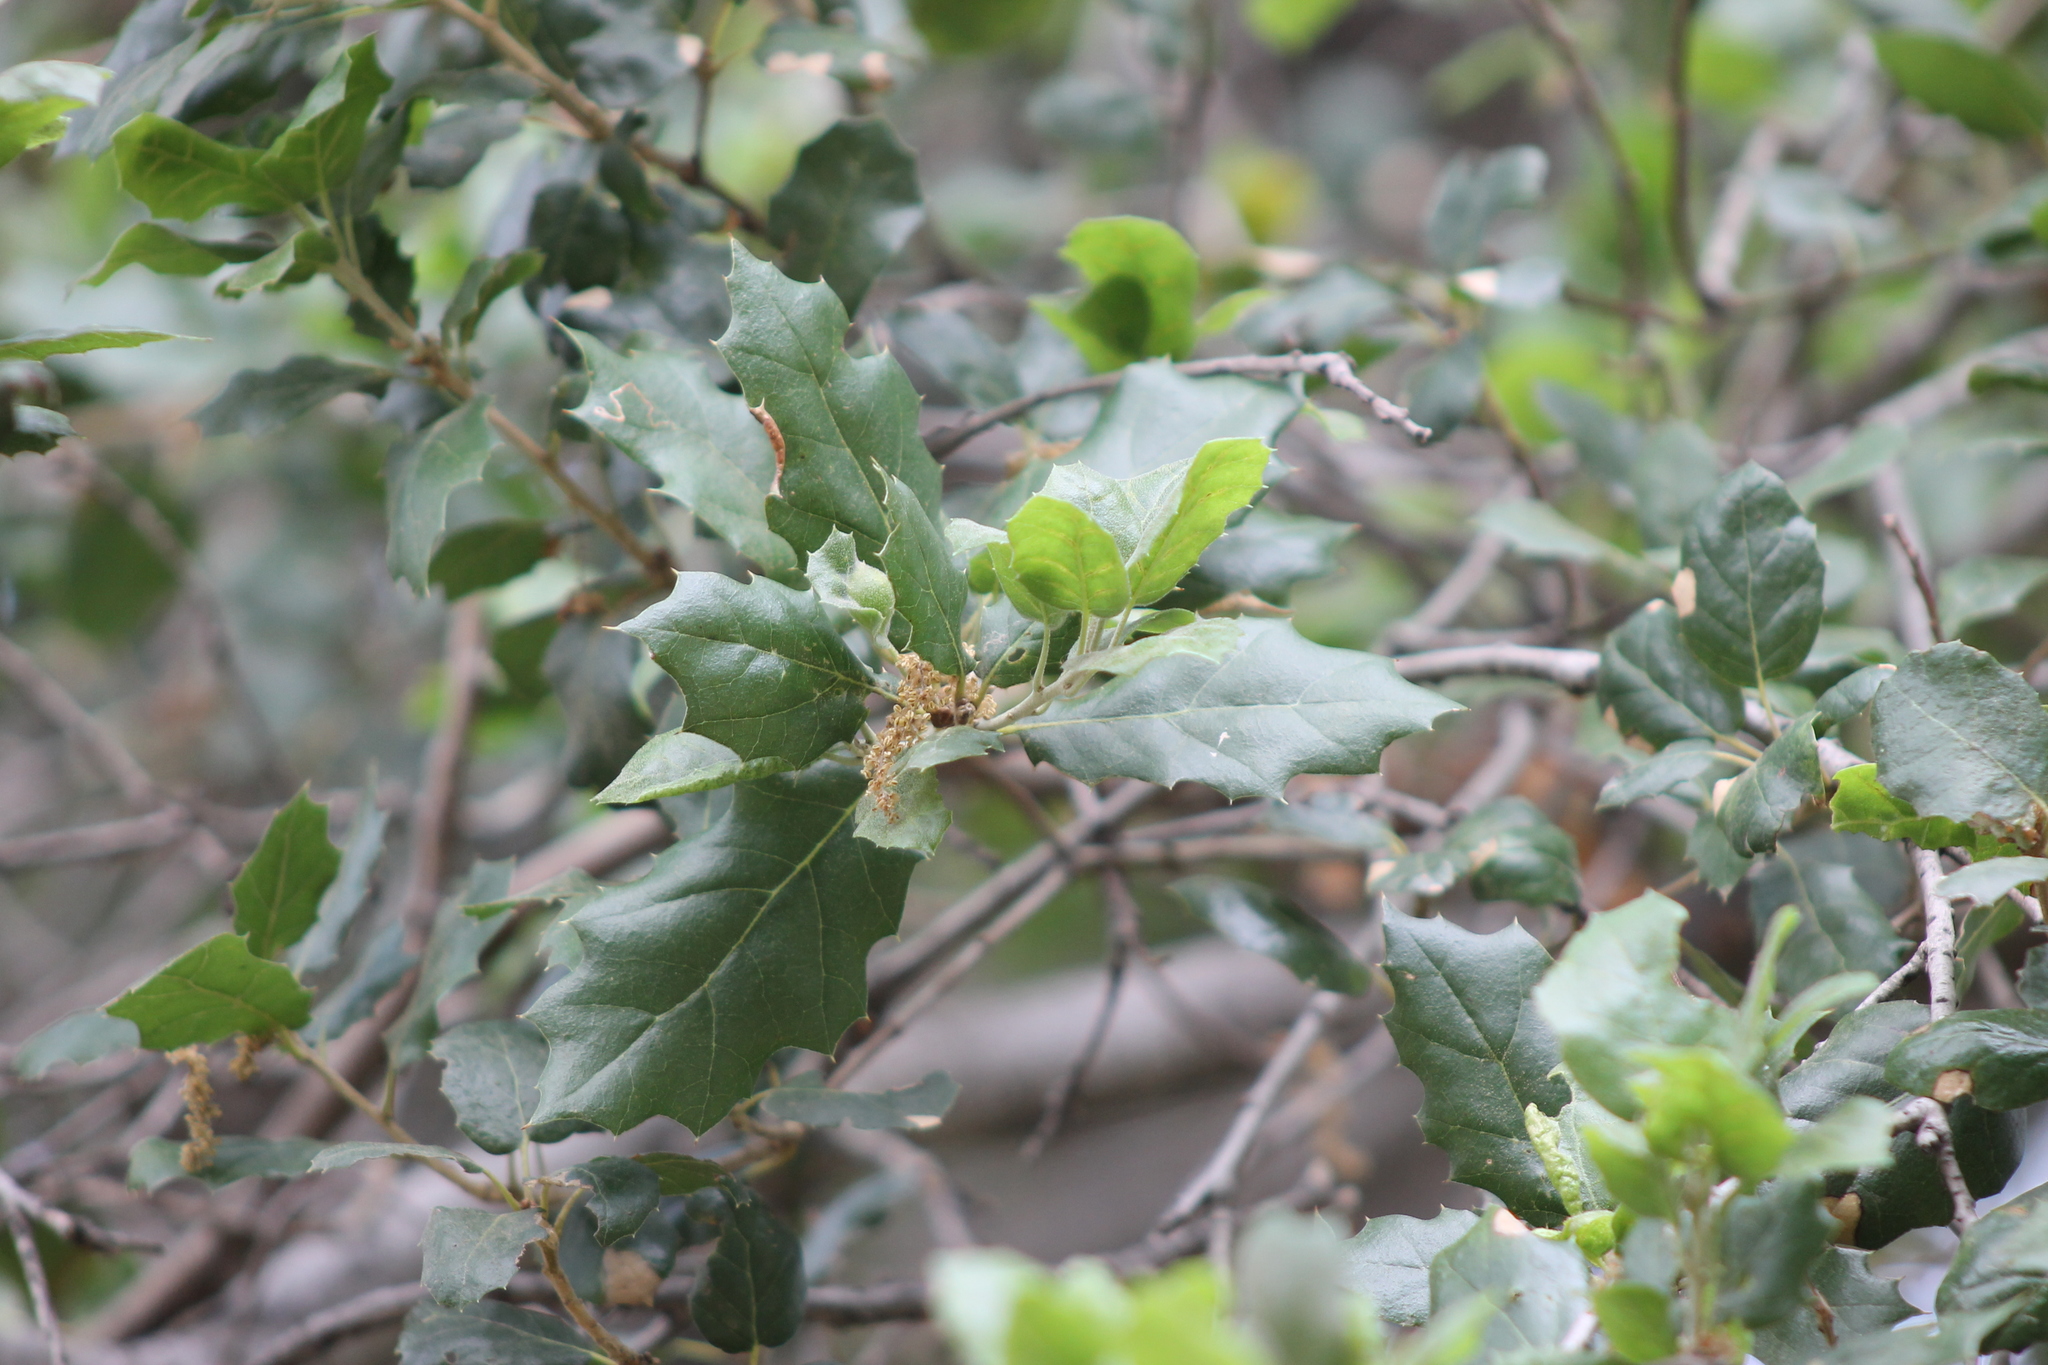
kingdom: Plantae
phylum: Tracheophyta
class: Magnoliopsida
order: Fagales
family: Fagaceae
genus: Quercus
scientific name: Quercus agrifolia
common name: California live oak
